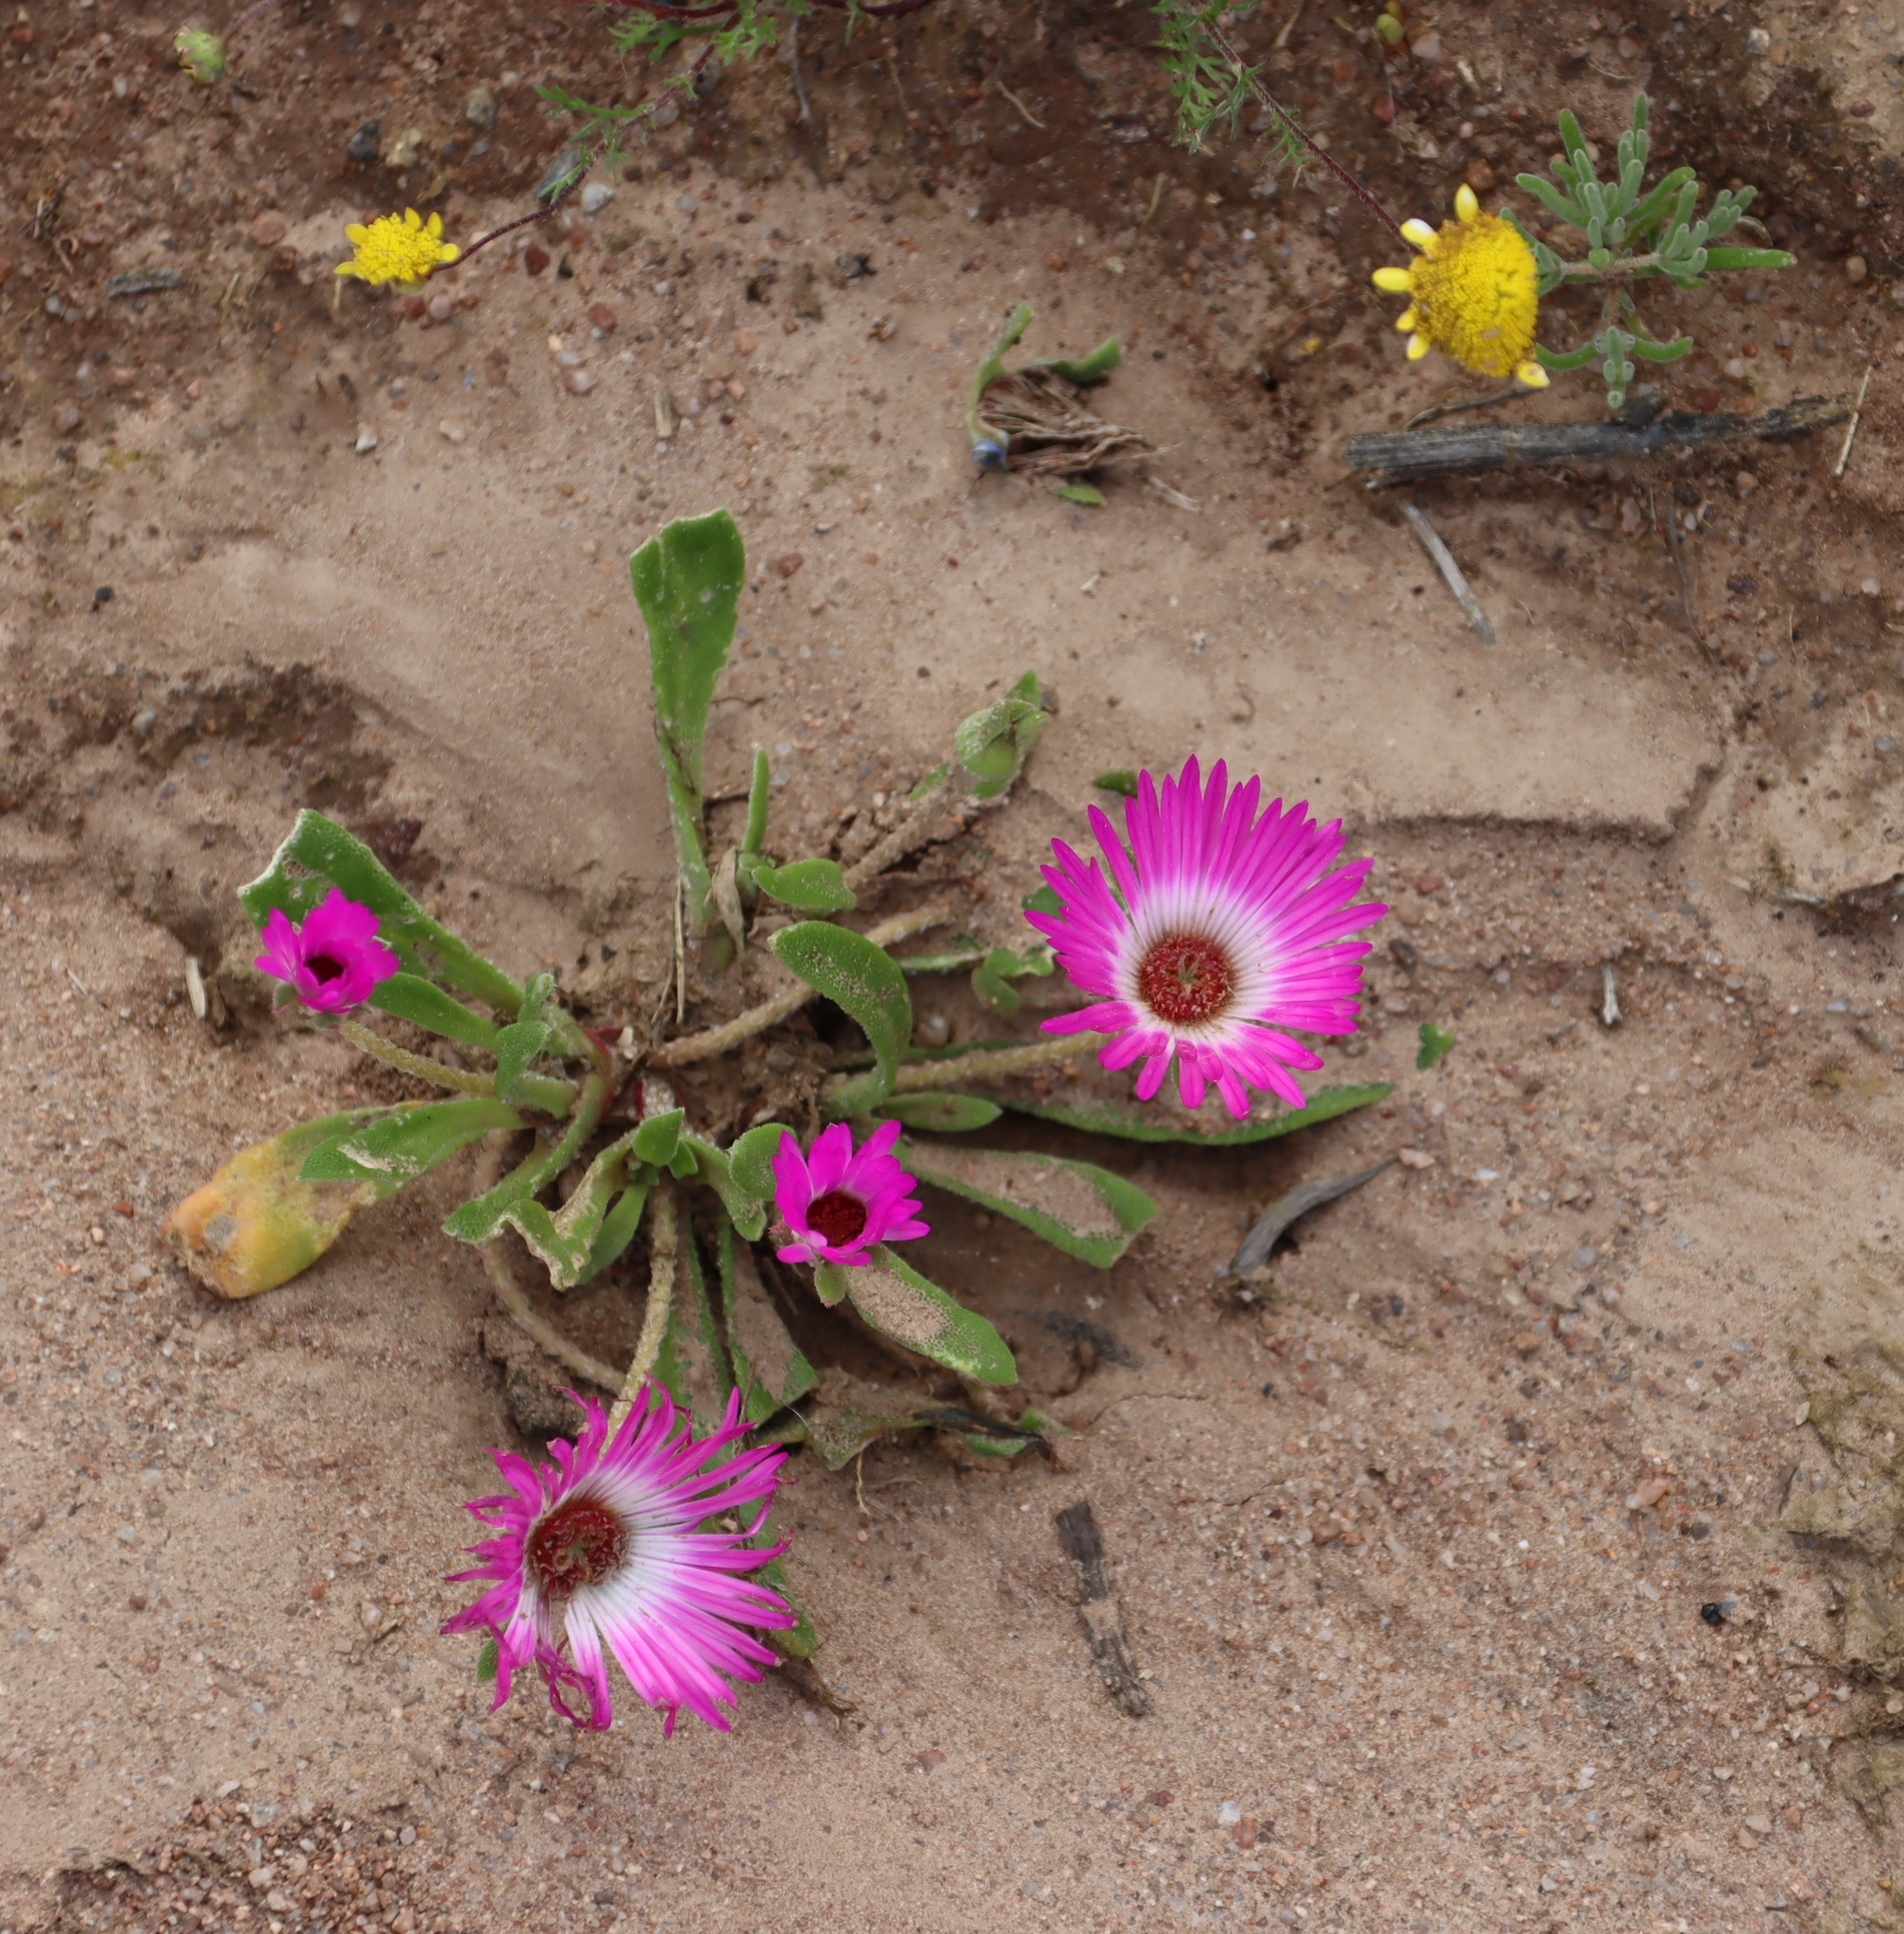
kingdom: Plantae
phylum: Tracheophyta
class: Magnoliopsida
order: Caryophyllales
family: Aizoaceae
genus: Cleretum
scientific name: Cleretum bellidiforme
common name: Livingstone daisy
